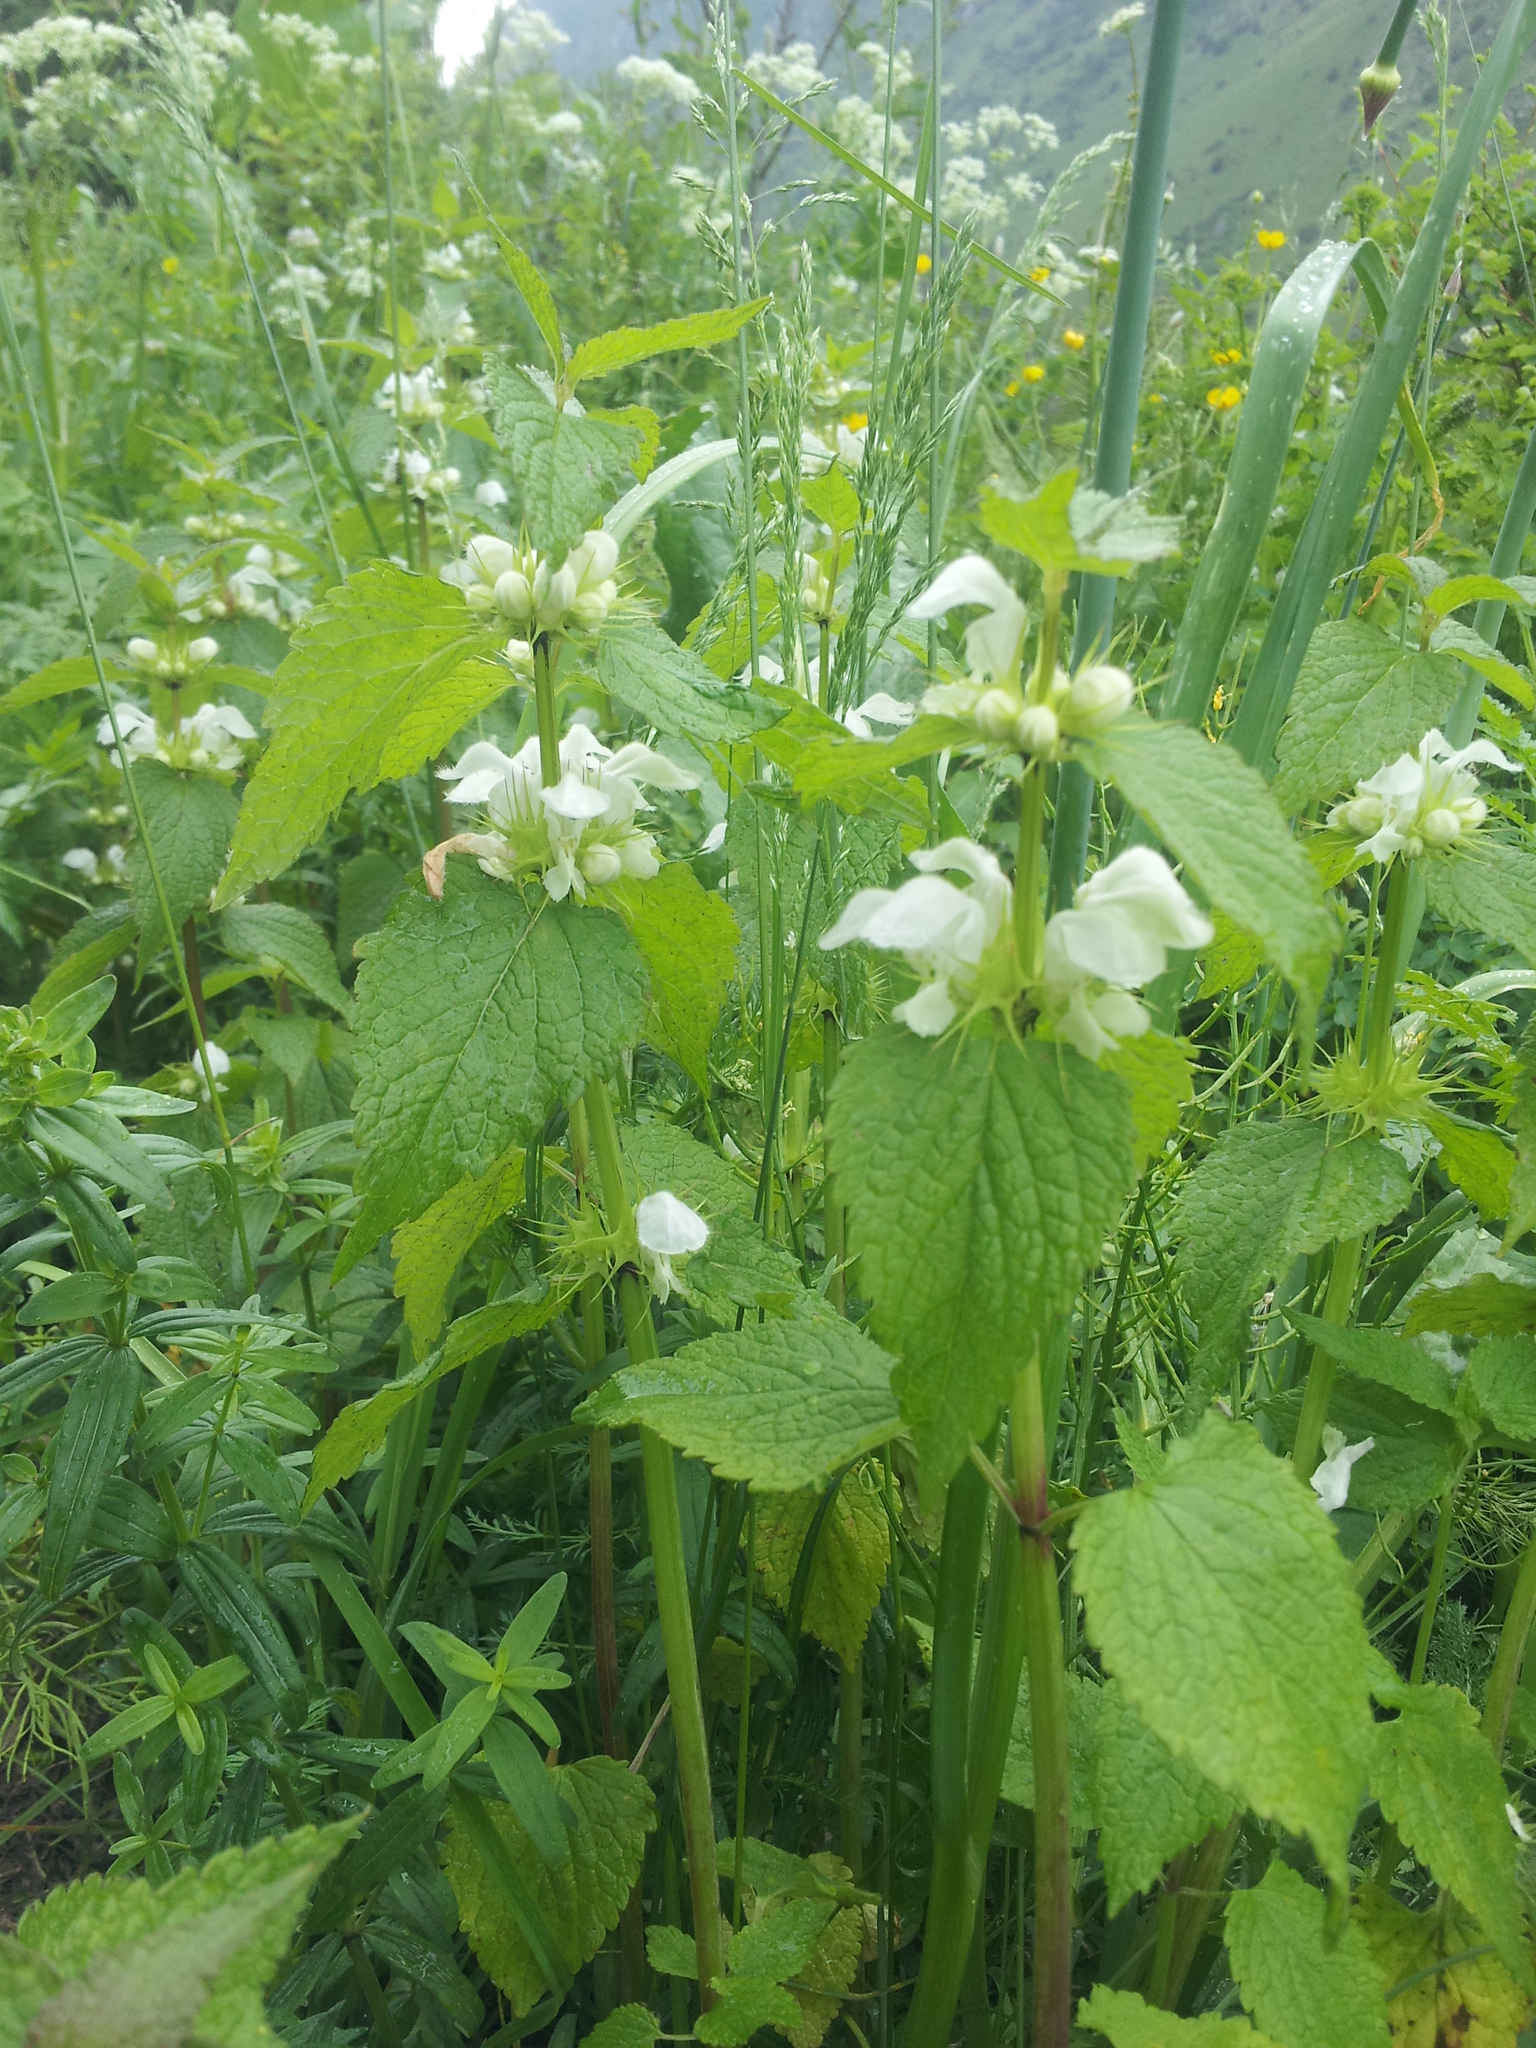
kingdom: Plantae
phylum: Tracheophyta
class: Magnoliopsida
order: Lamiales
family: Lamiaceae
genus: Lamium
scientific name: Lamium album
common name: White dead-nettle
